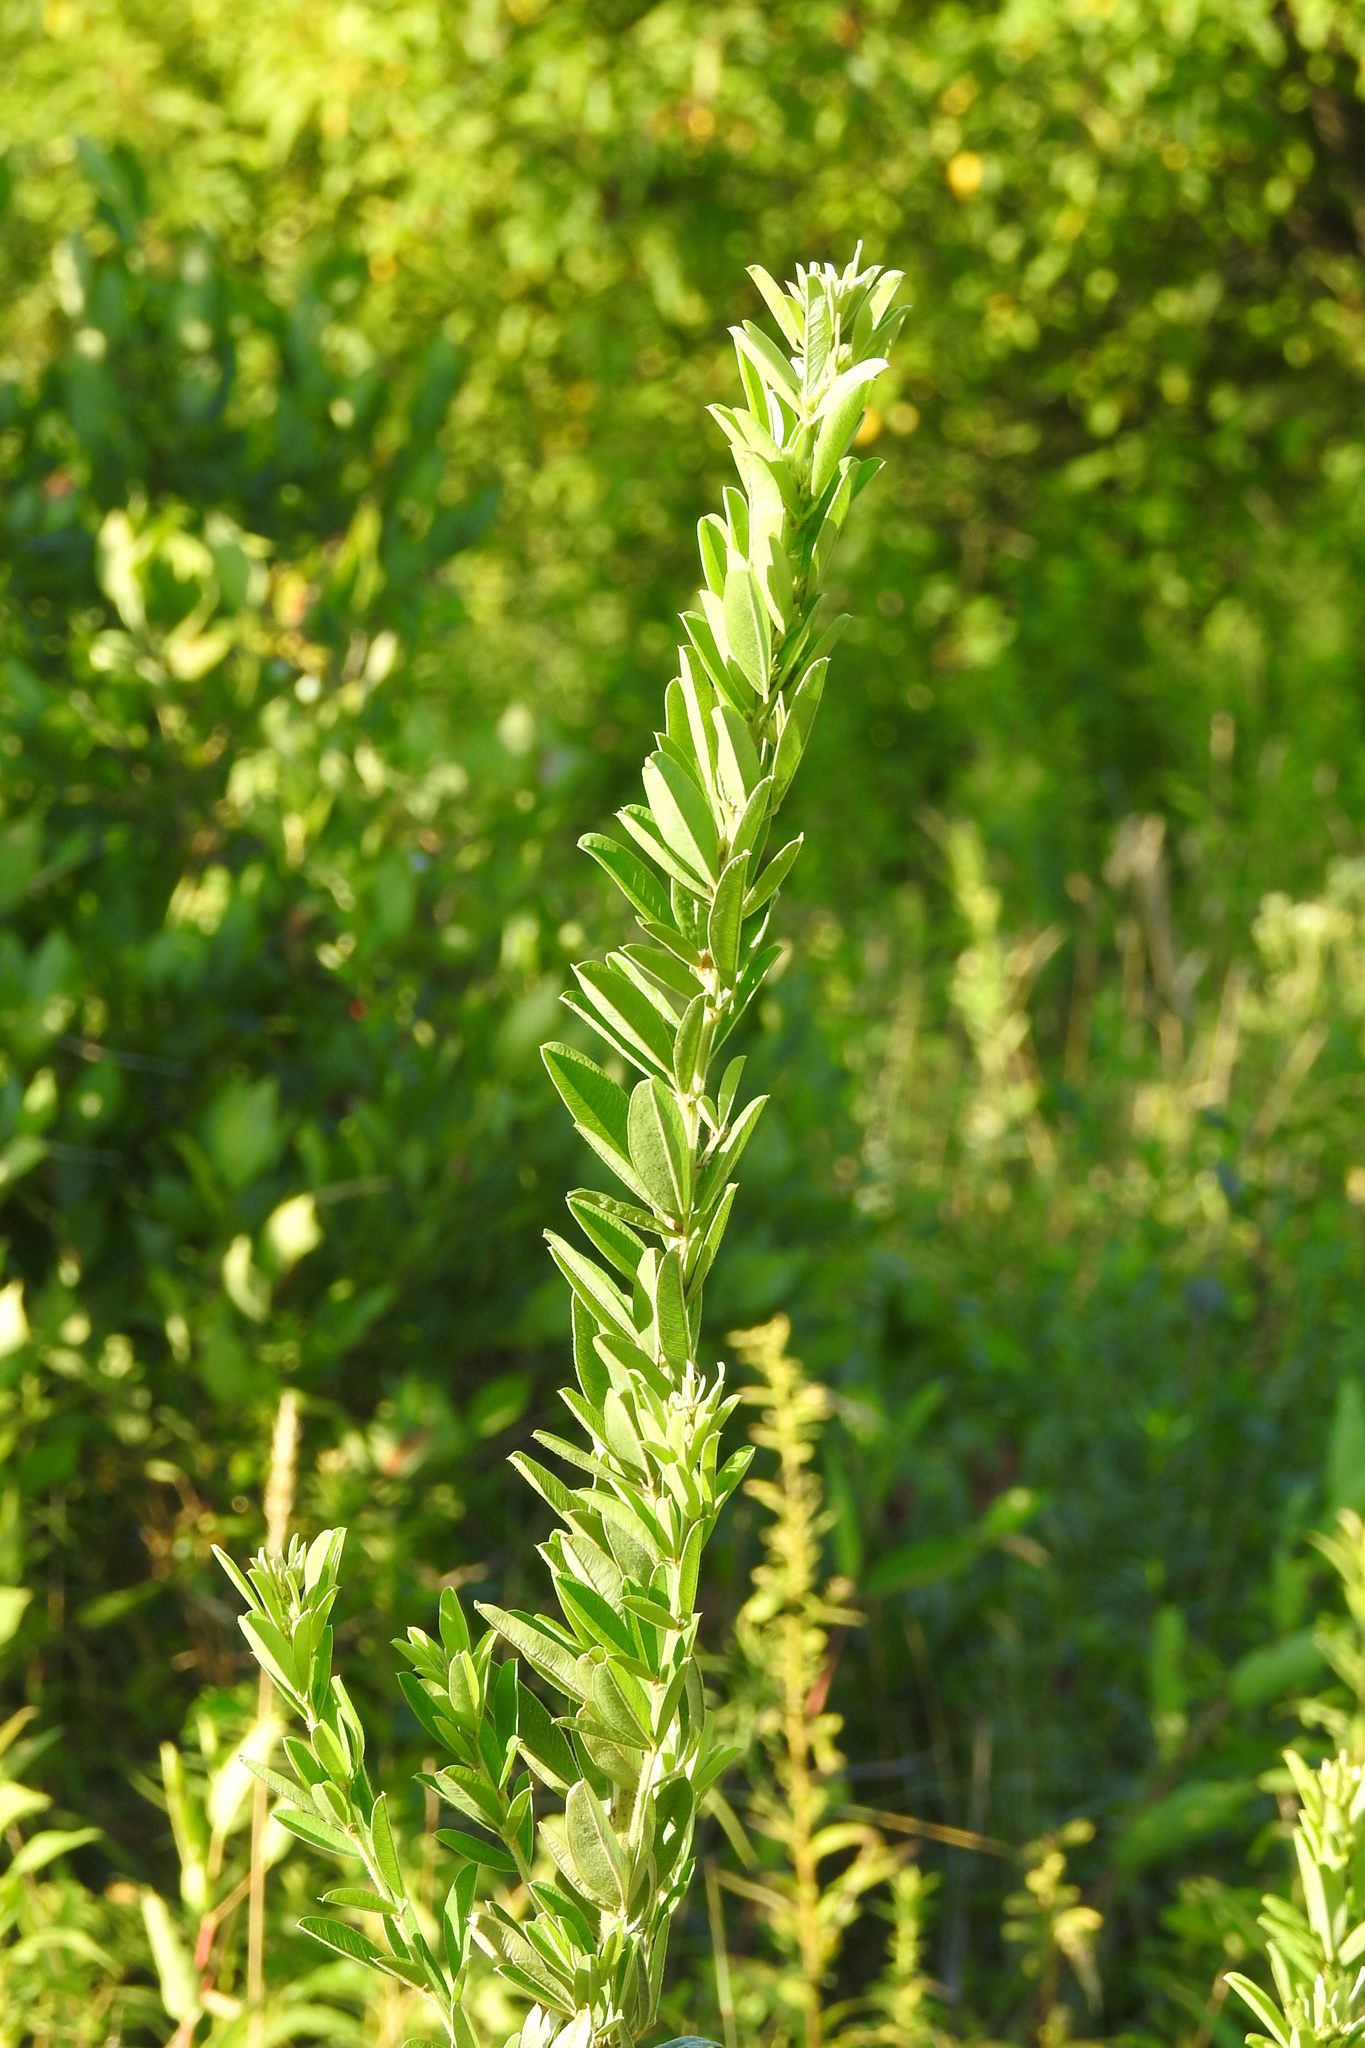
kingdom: Plantae
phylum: Tracheophyta
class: Magnoliopsida
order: Fabales
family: Fabaceae
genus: Lespedeza
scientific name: Lespedeza capitata
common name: Dusty clover
